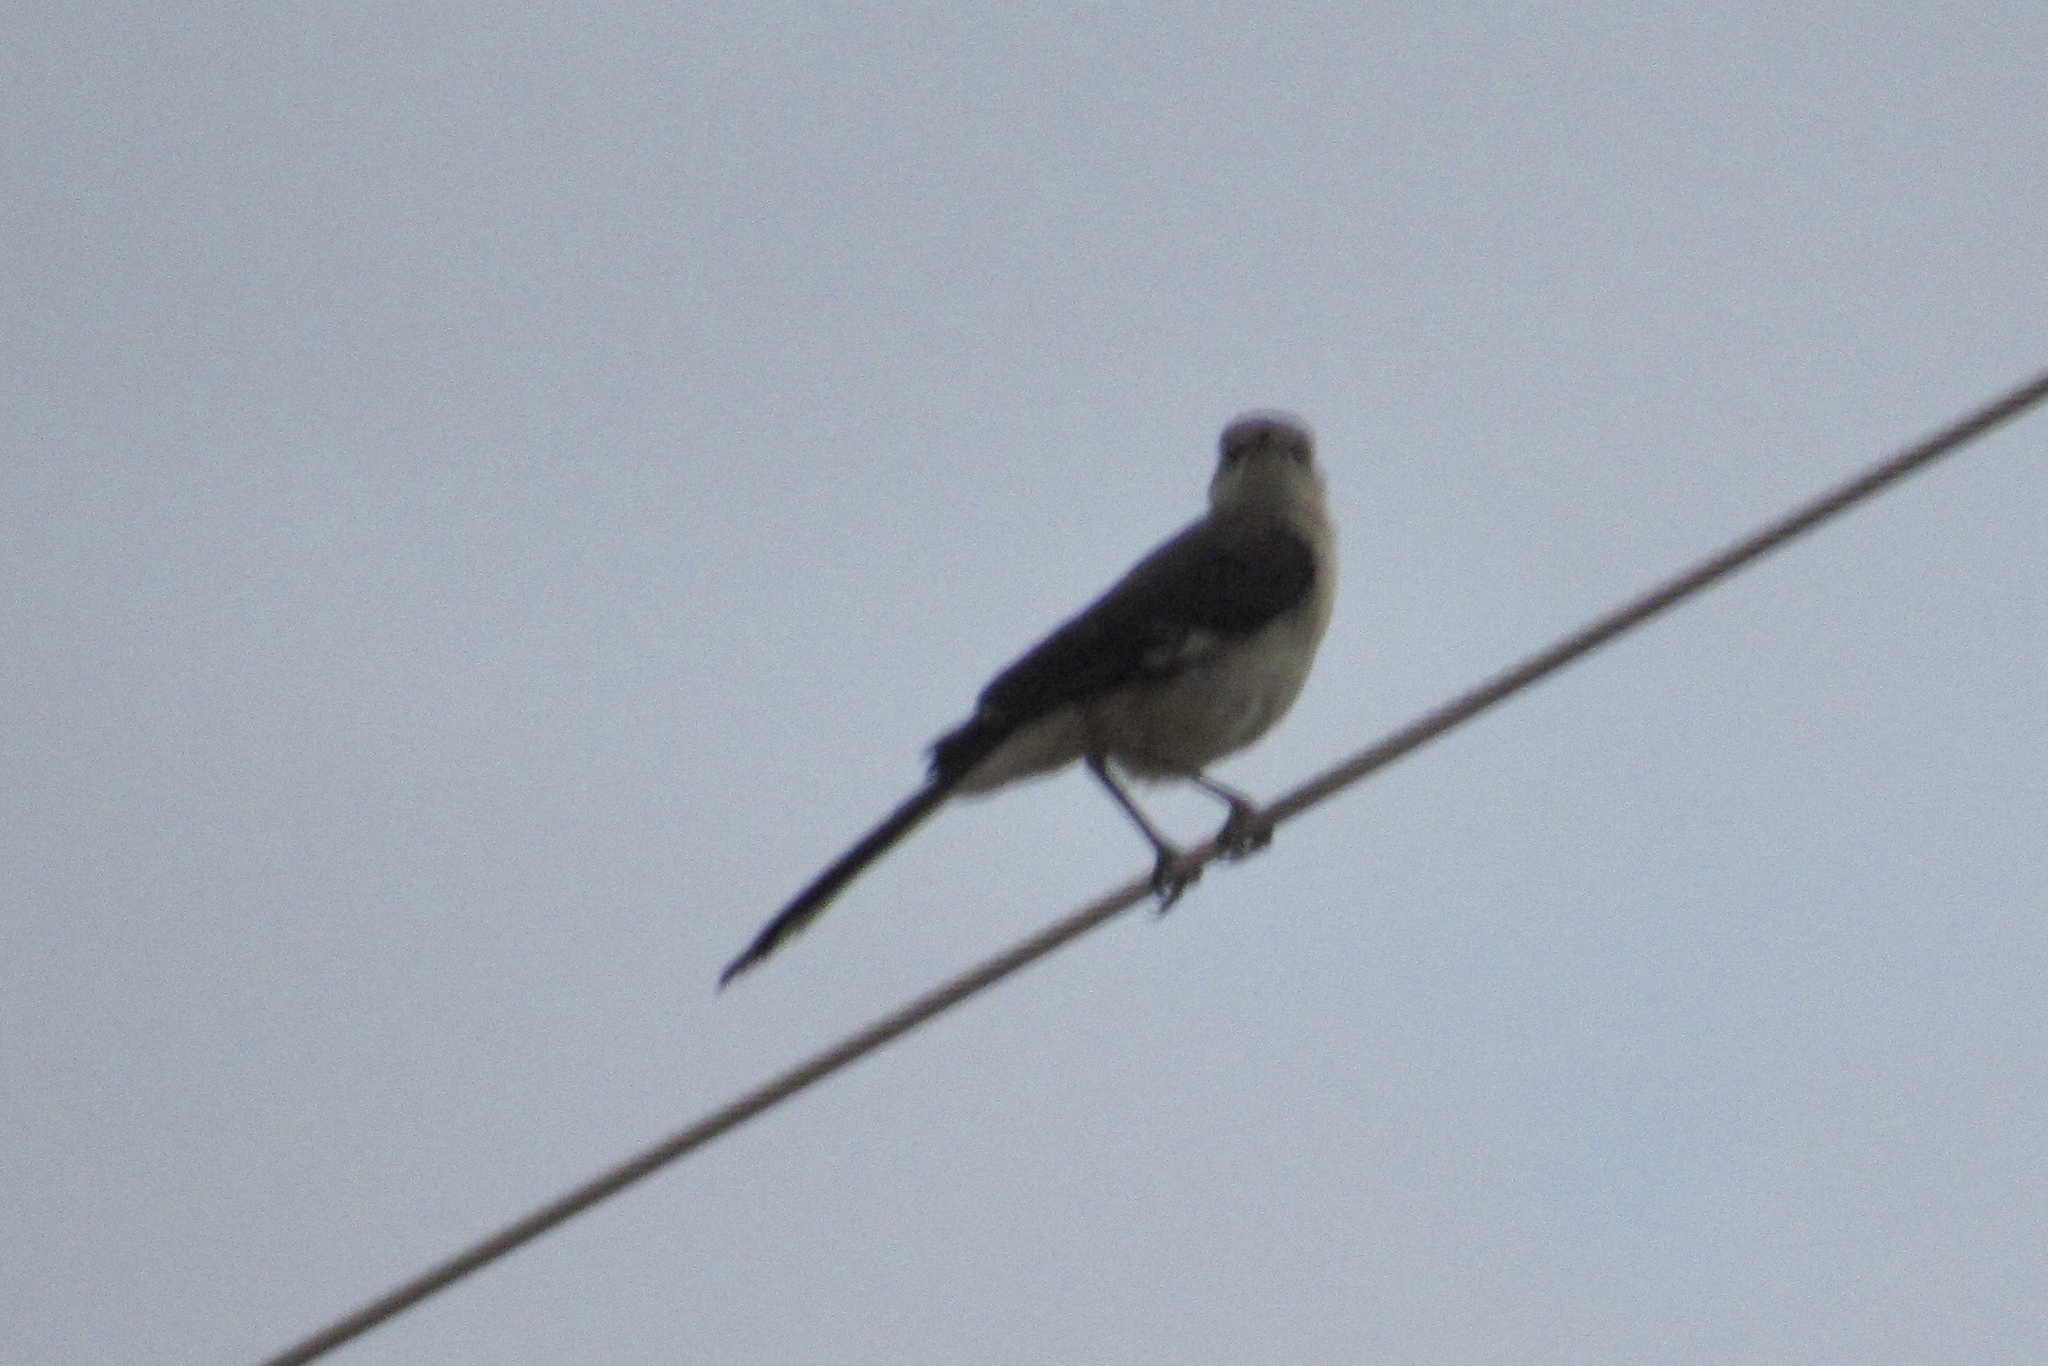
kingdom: Animalia
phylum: Chordata
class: Aves
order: Passeriformes
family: Mimidae
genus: Mimus
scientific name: Mimus polyglottos
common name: Northern mockingbird
